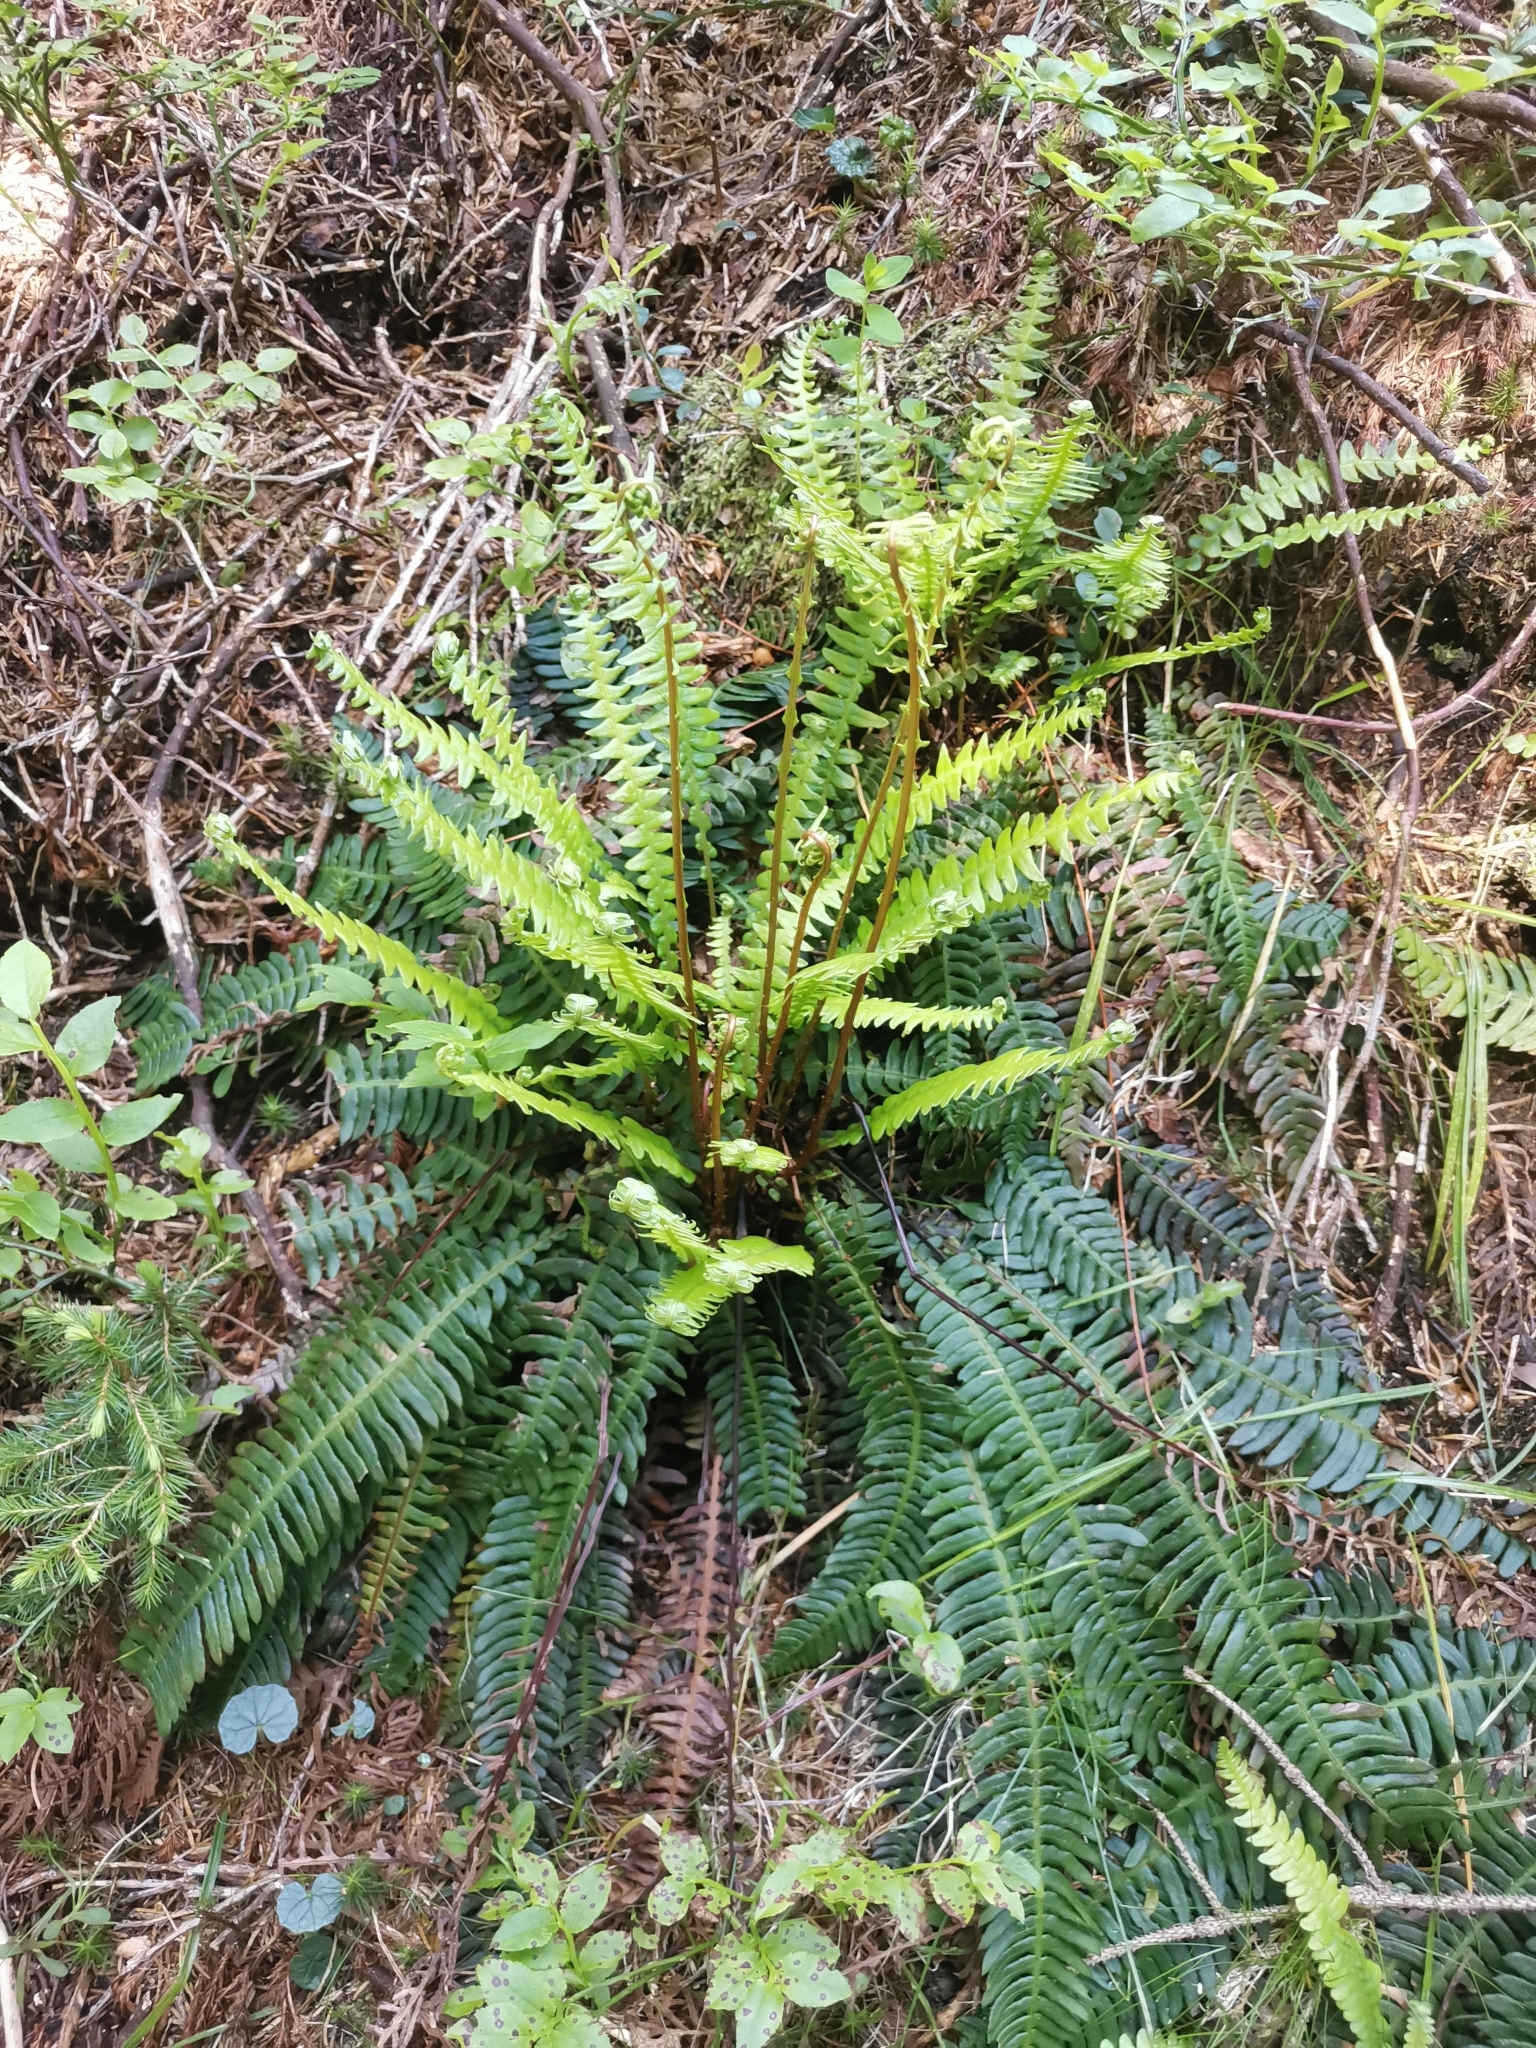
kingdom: Plantae
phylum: Tracheophyta
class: Polypodiopsida
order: Polypodiales
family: Blechnaceae
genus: Struthiopteris
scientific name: Struthiopteris spicant
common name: Deer fern
